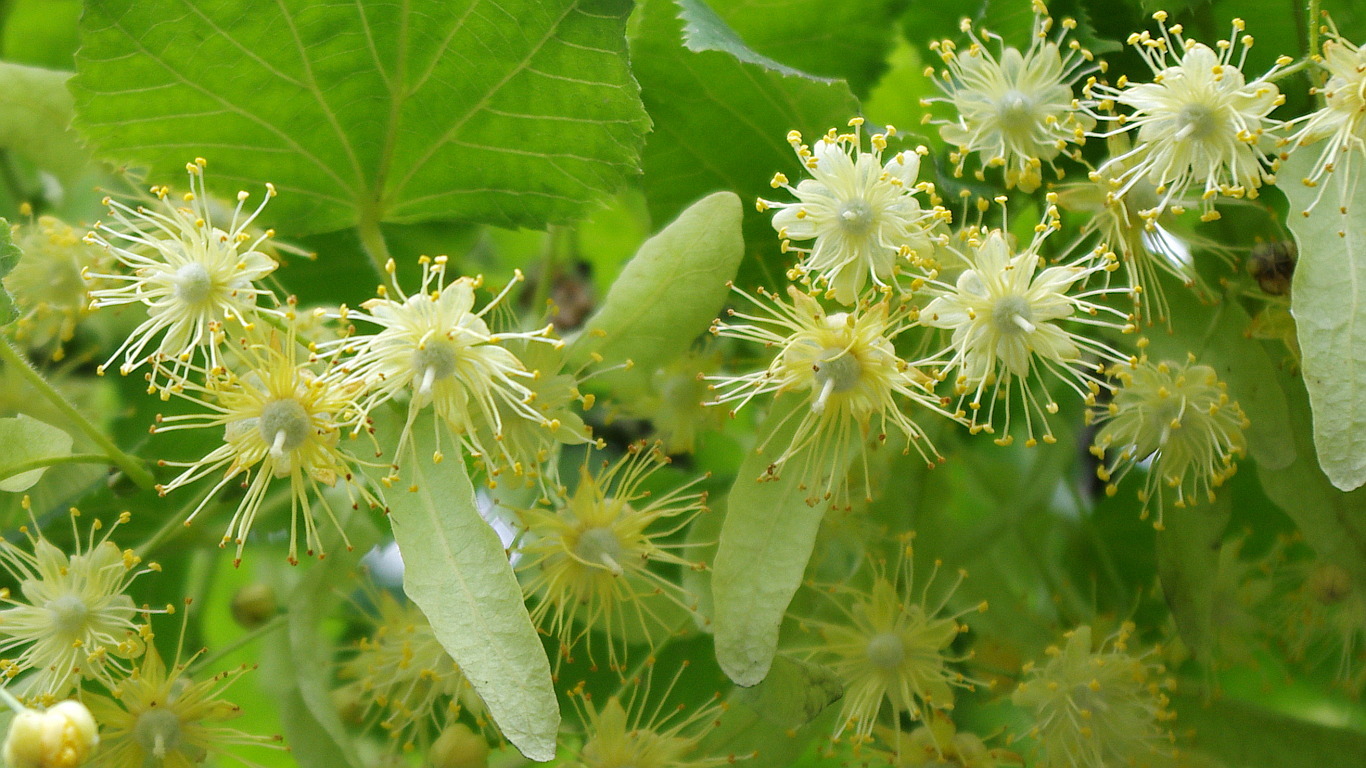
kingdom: Plantae
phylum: Tracheophyta
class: Magnoliopsida
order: Malvales
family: Malvaceae
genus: Tilia
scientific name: Tilia platyphyllos
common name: Large-leaved lime
